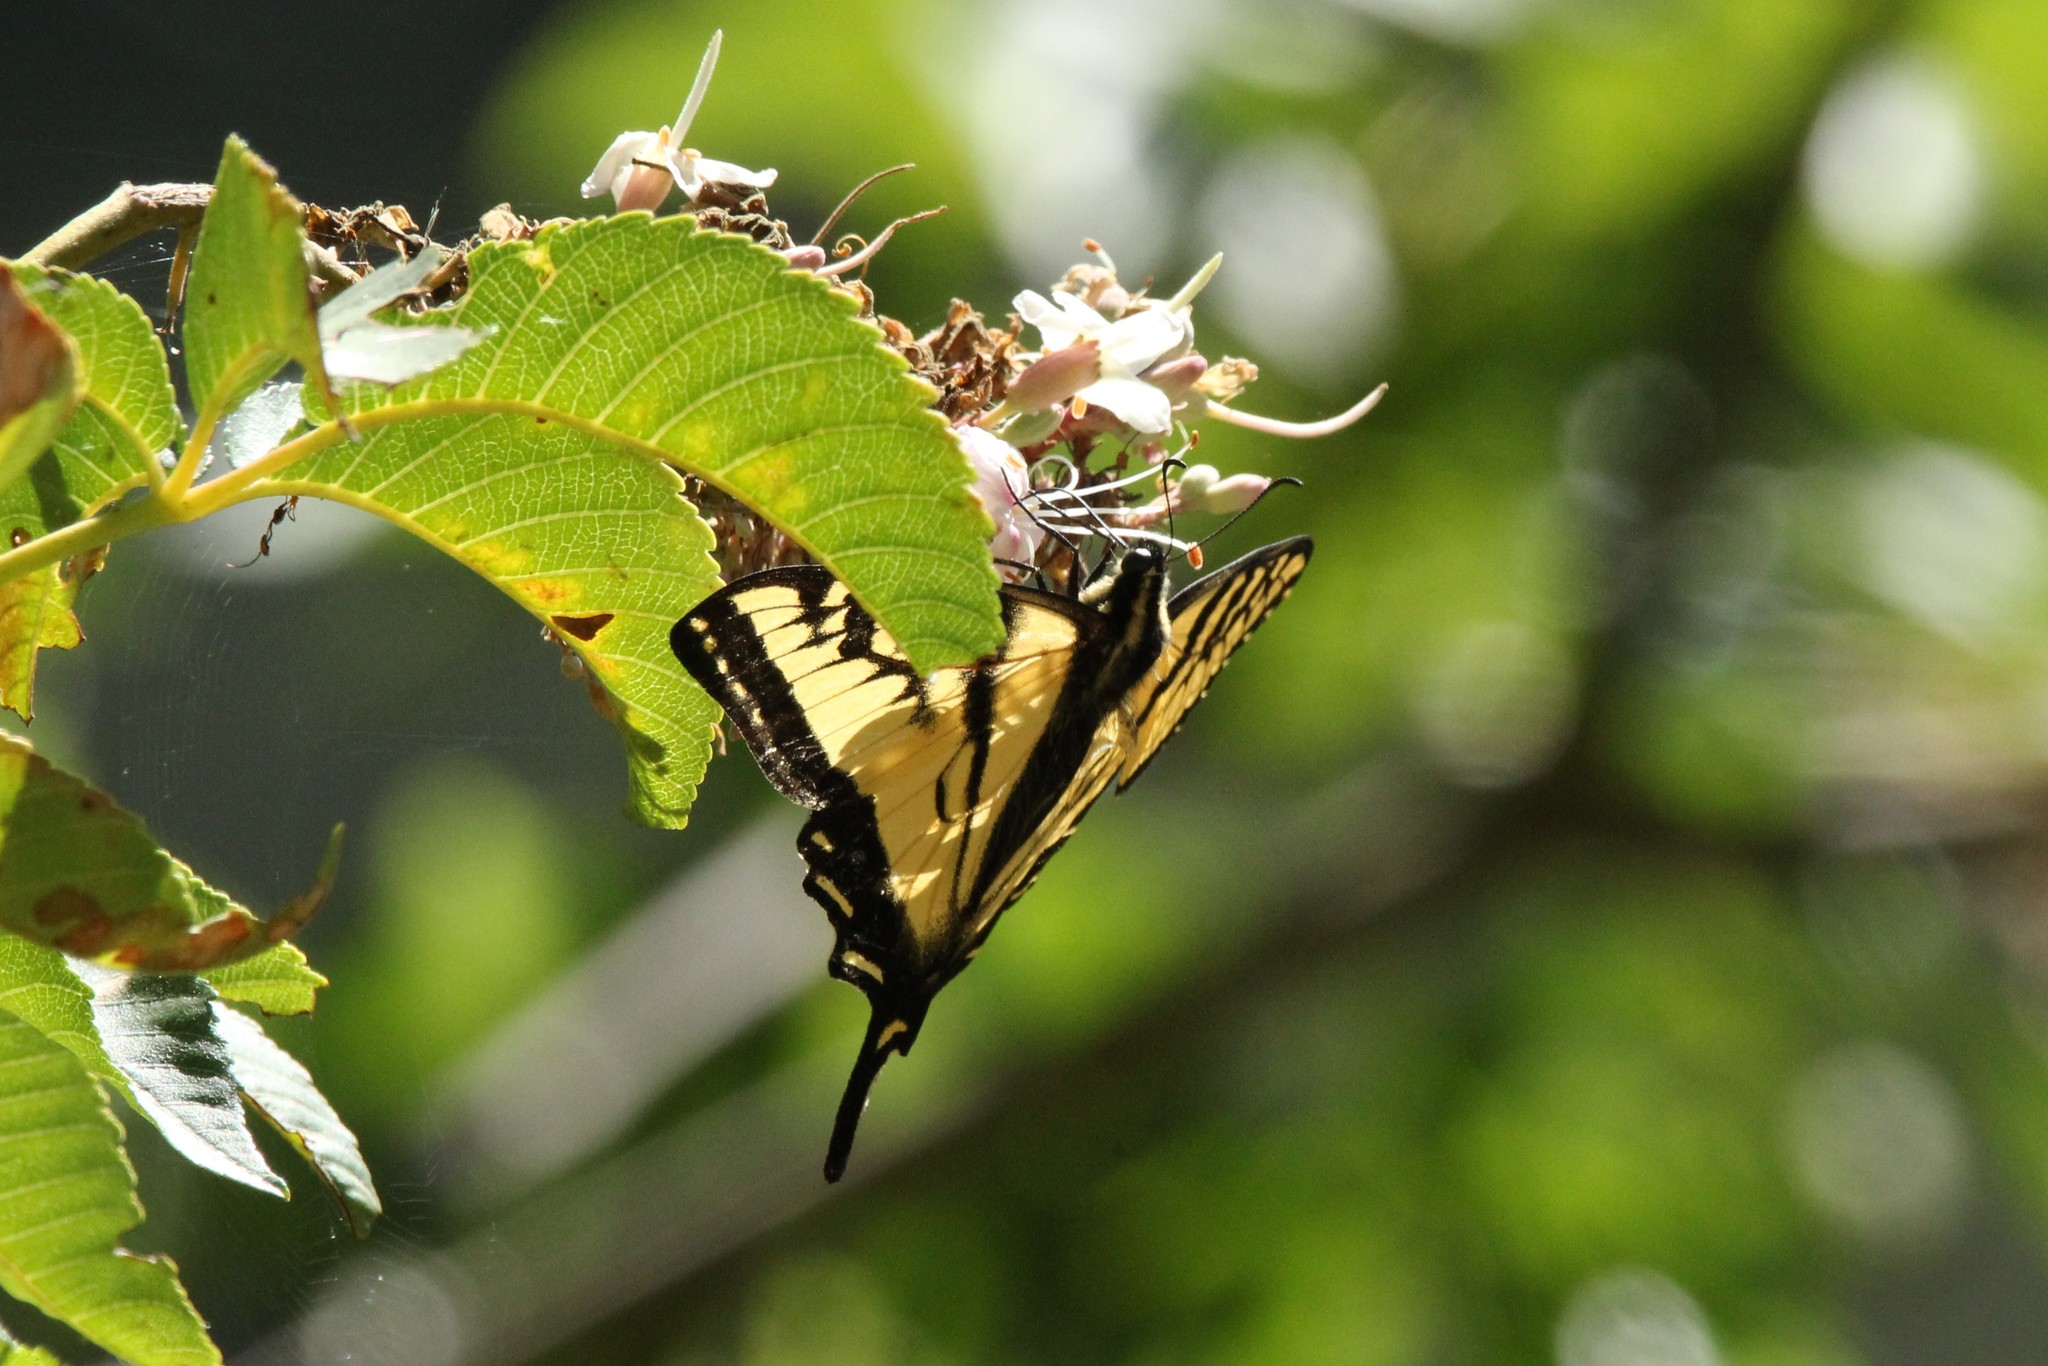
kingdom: Animalia
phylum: Arthropoda
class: Insecta
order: Lepidoptera
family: Papilionidae
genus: Papilio
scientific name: Papilio rutulus
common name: Western tiger swallowtail
